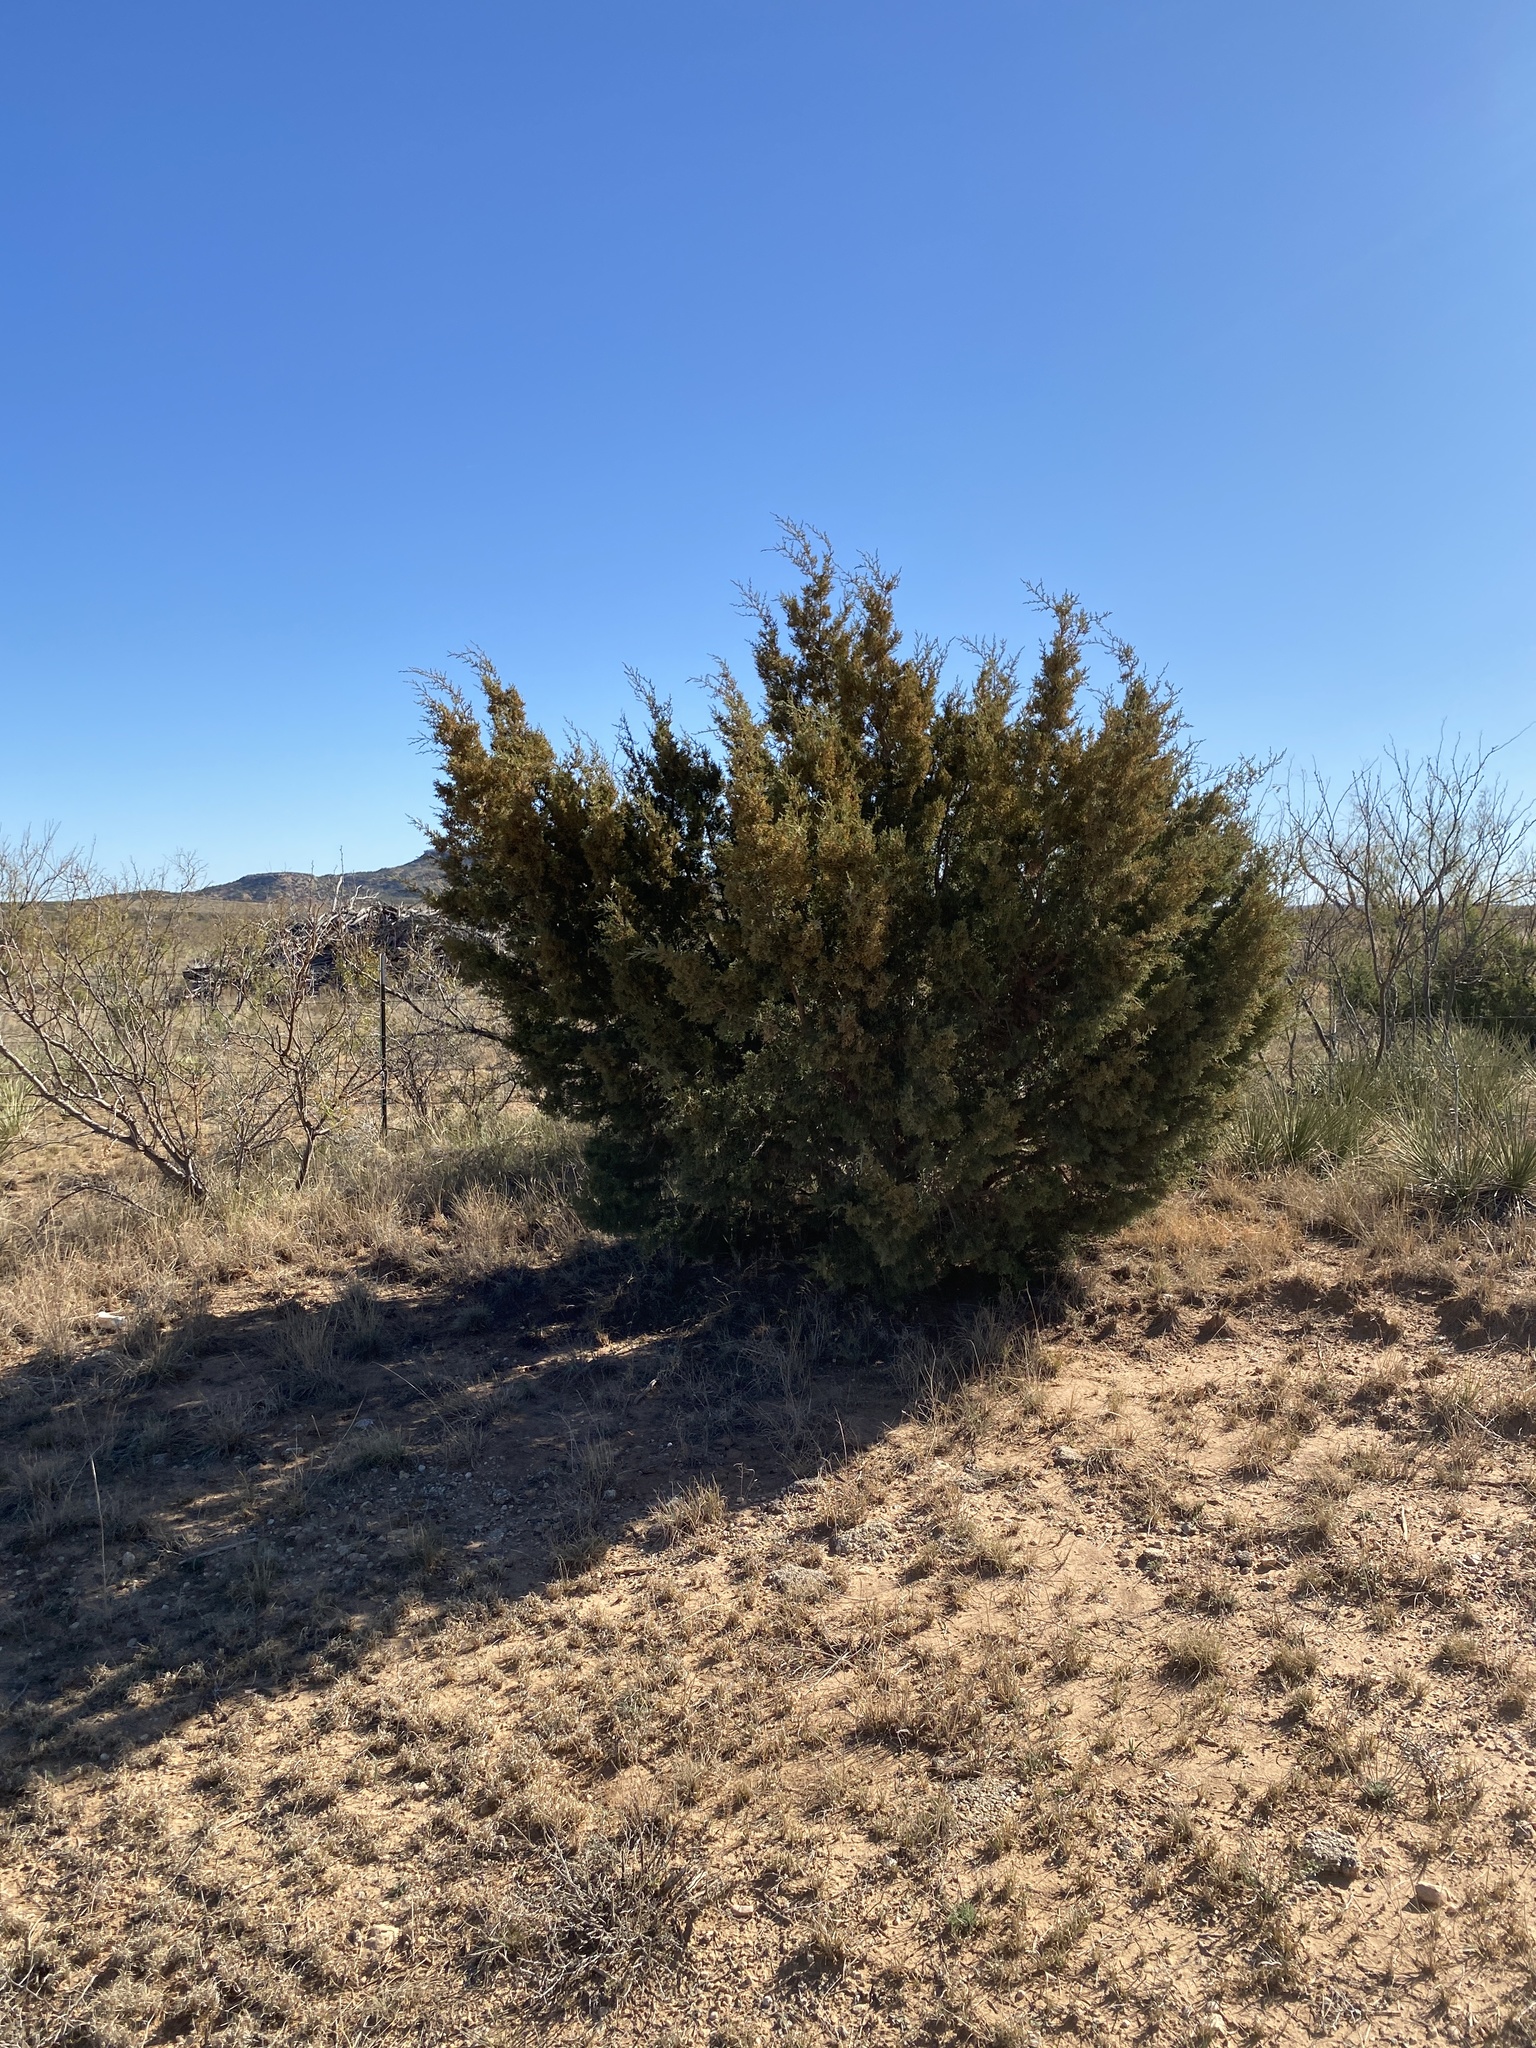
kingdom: Plantae
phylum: Tracheophyta
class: Pinopsida
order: Pinales
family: Cupressaceae
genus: Juniperus
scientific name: Juniperus pinchotii
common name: Pinchot juniper
